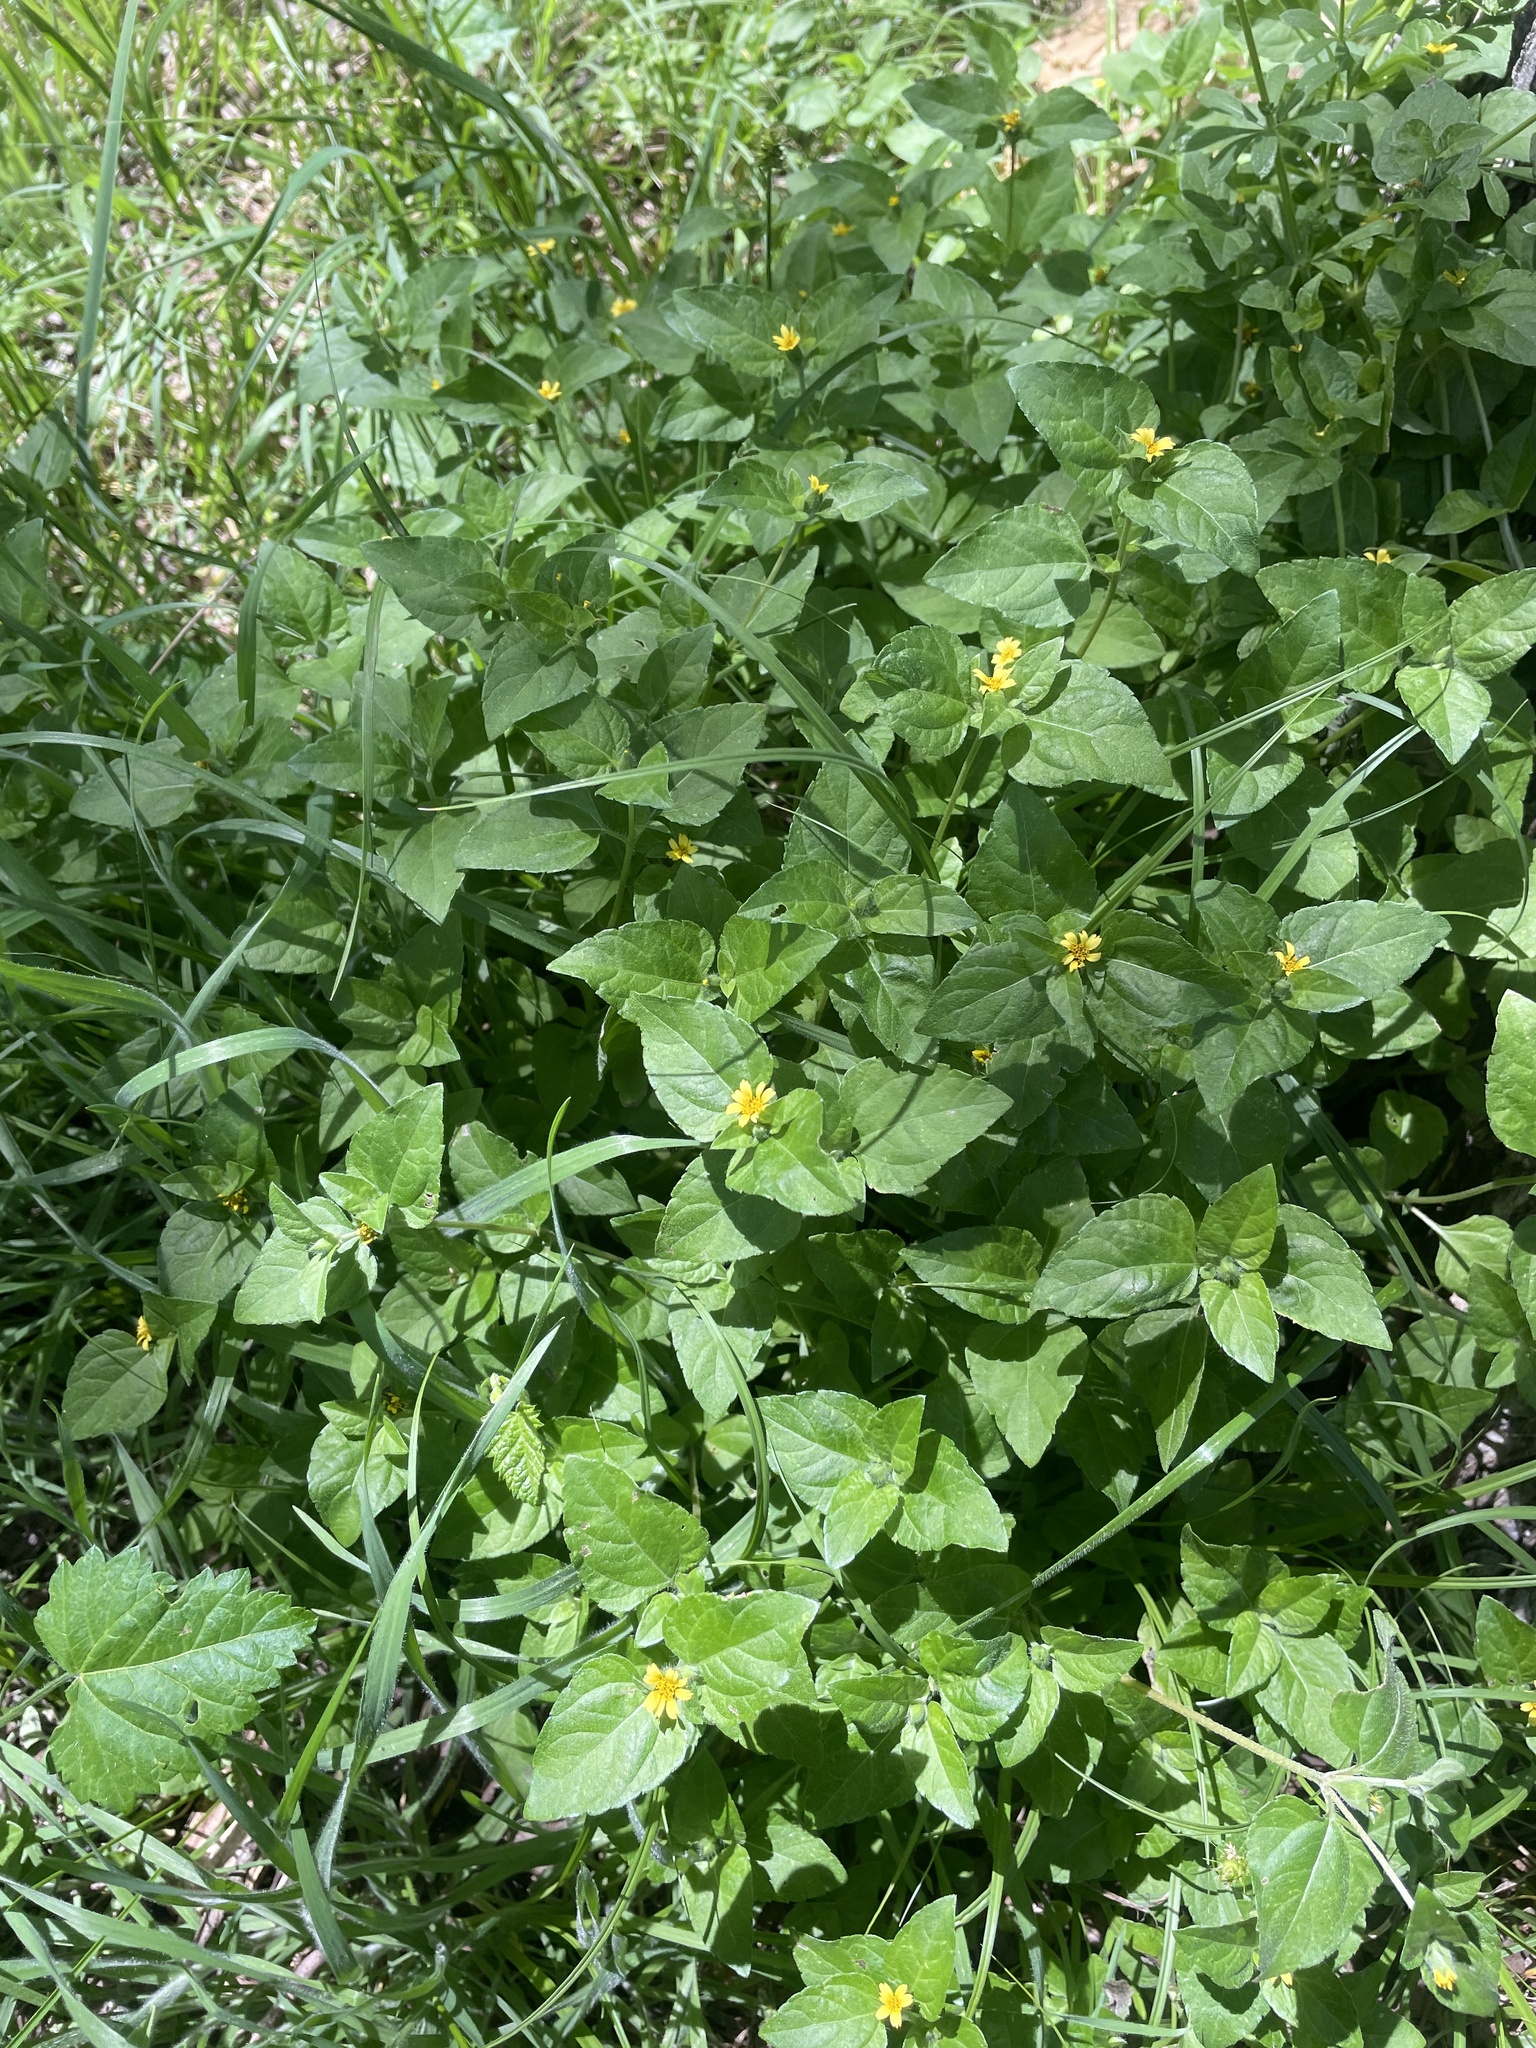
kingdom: Plantae
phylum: Tracheophyta
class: Magnoliopsida
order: Asterales
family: Asteraceae
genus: Calyptocarpus
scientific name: Calyptocarpus vialis
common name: Straggler daisy
